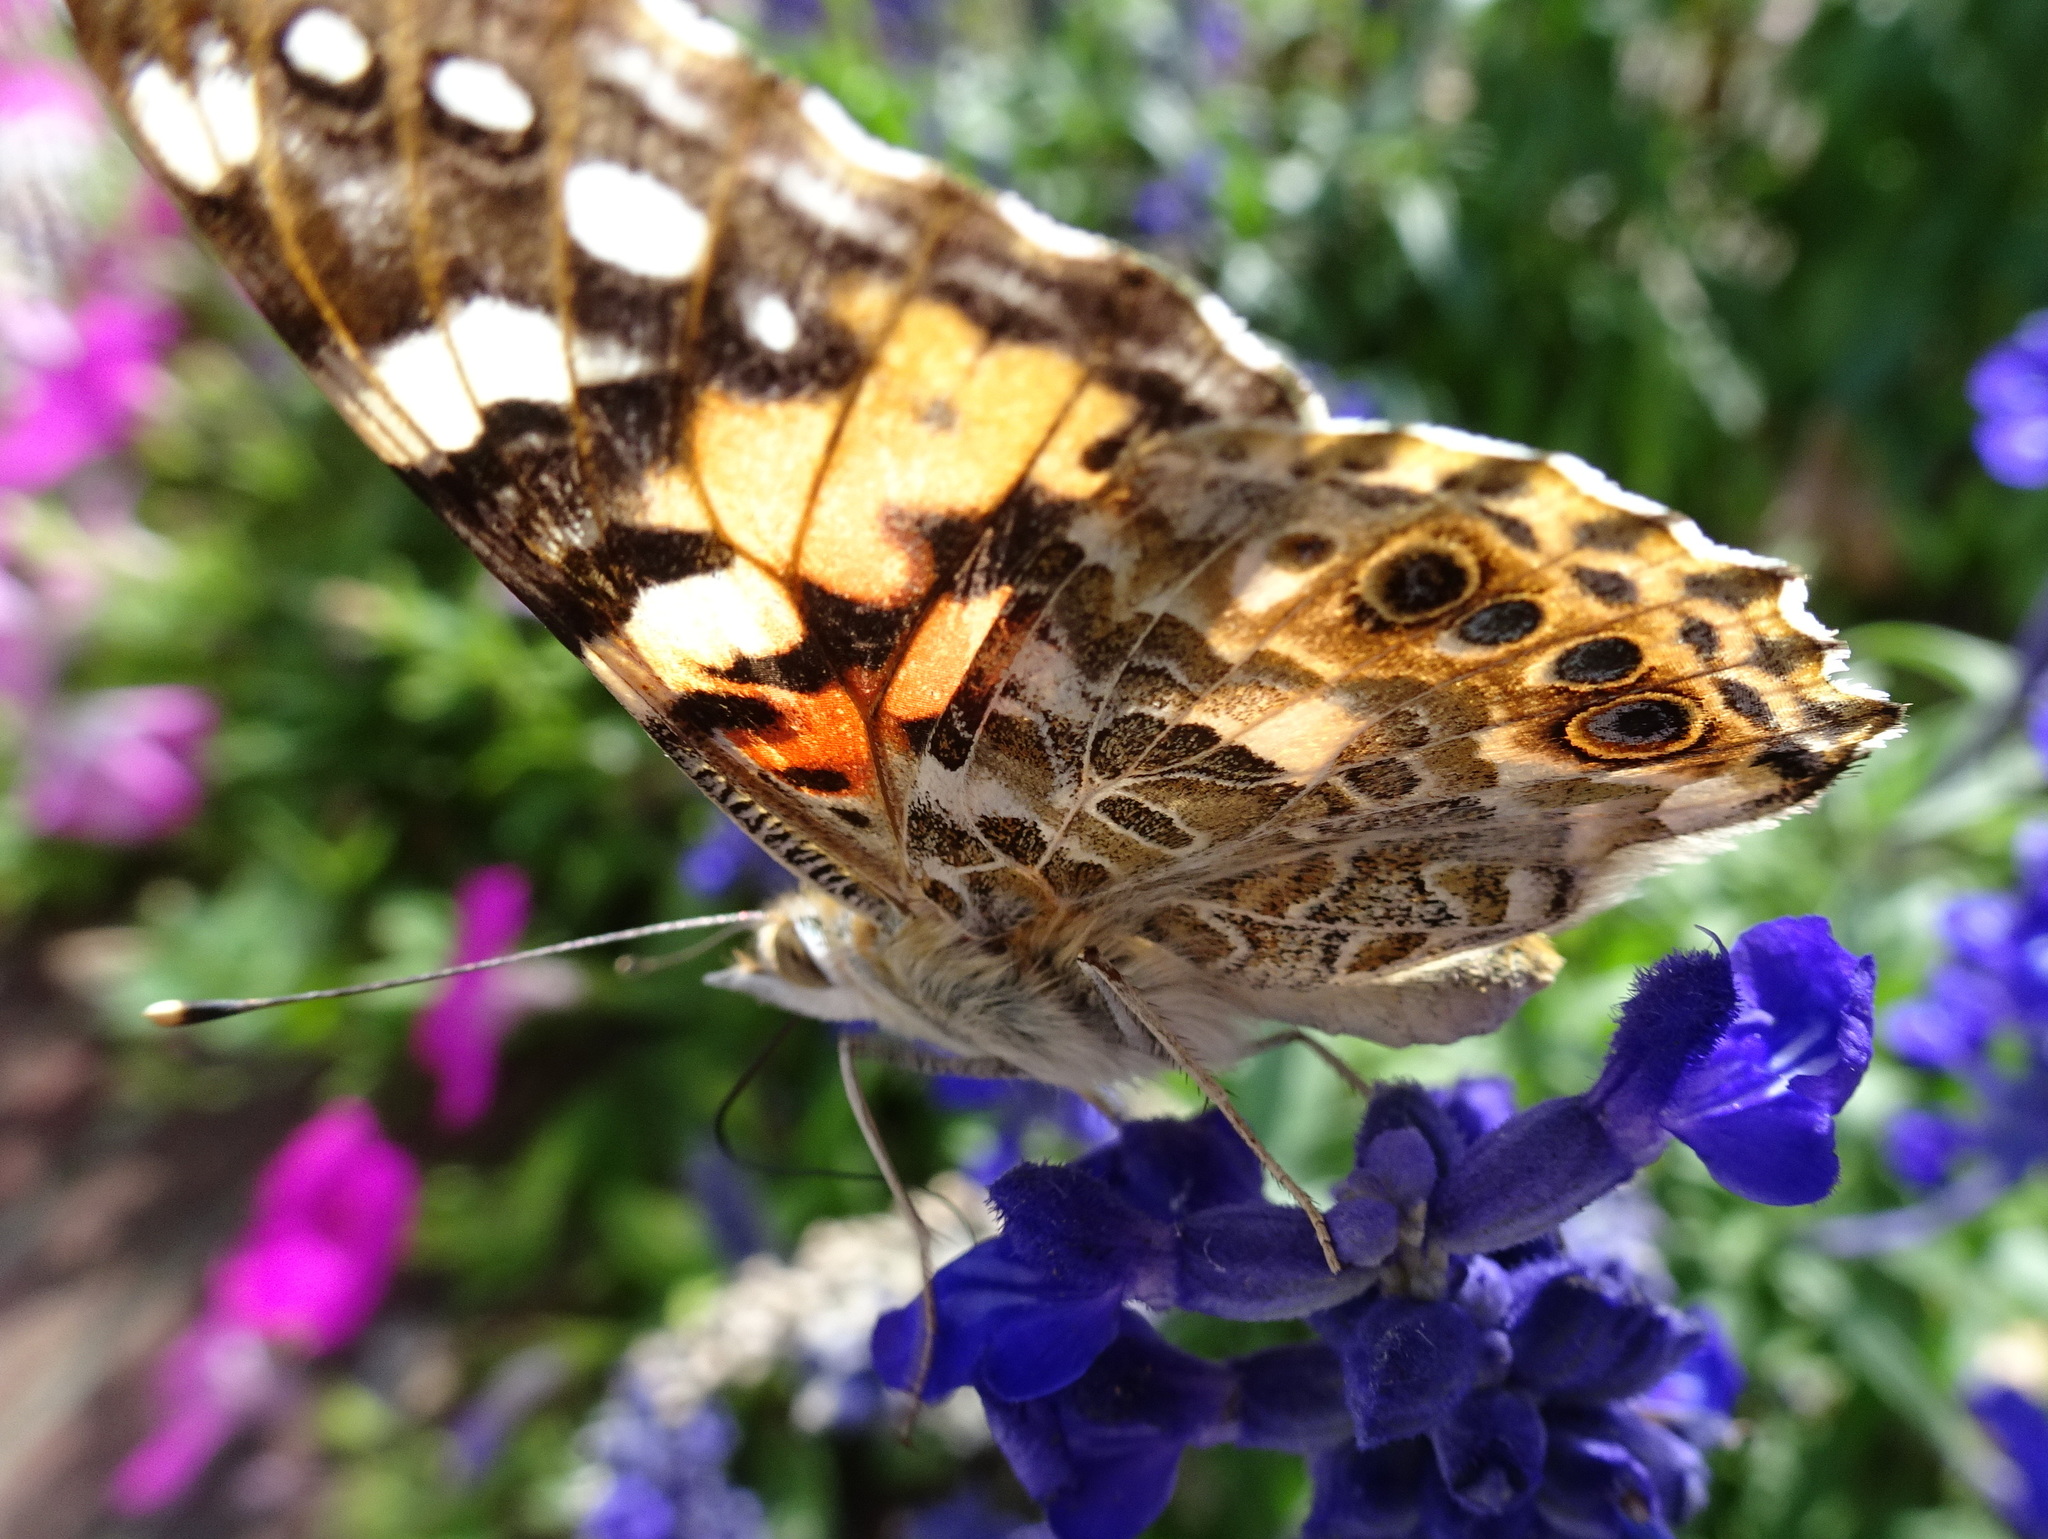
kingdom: Animalia
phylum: Arthropoda
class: Insecta
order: Lepidoptera
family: Nymphalidae
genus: Vanessa
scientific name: Vanessa cardui
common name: Painted lady
